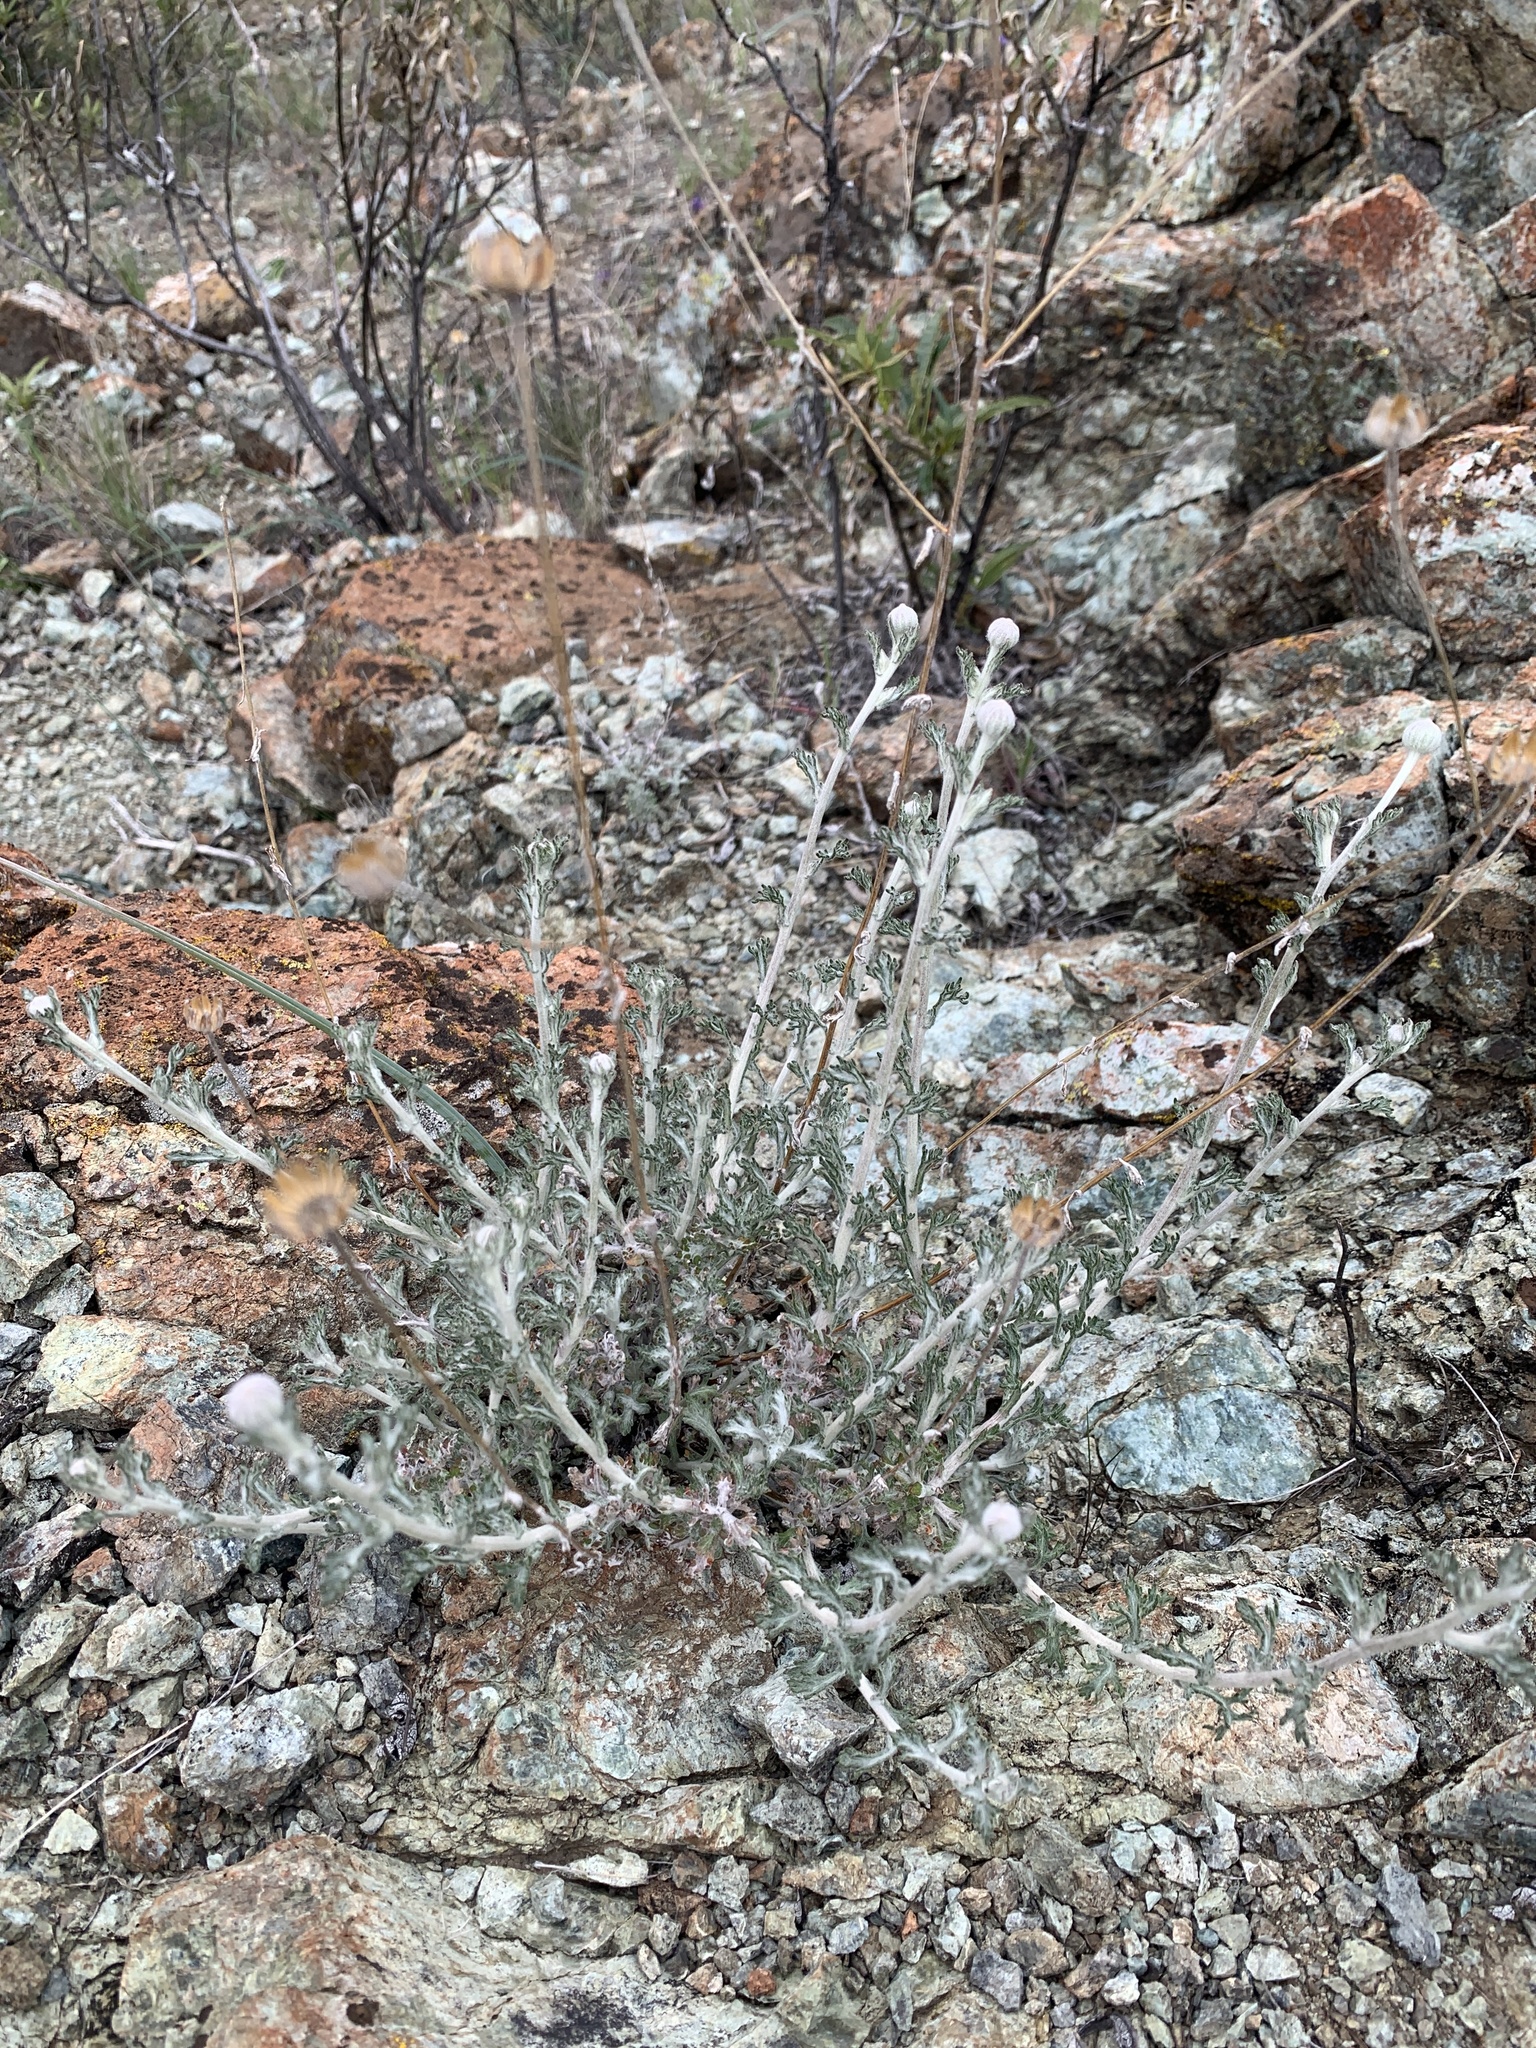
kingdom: Plantae
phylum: Tracheophyta
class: Magnoliopsida
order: Asterales
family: Asteraceae
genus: Eriophyllum
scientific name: Eriophyllum lanatum
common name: Common woolly-sunflower
